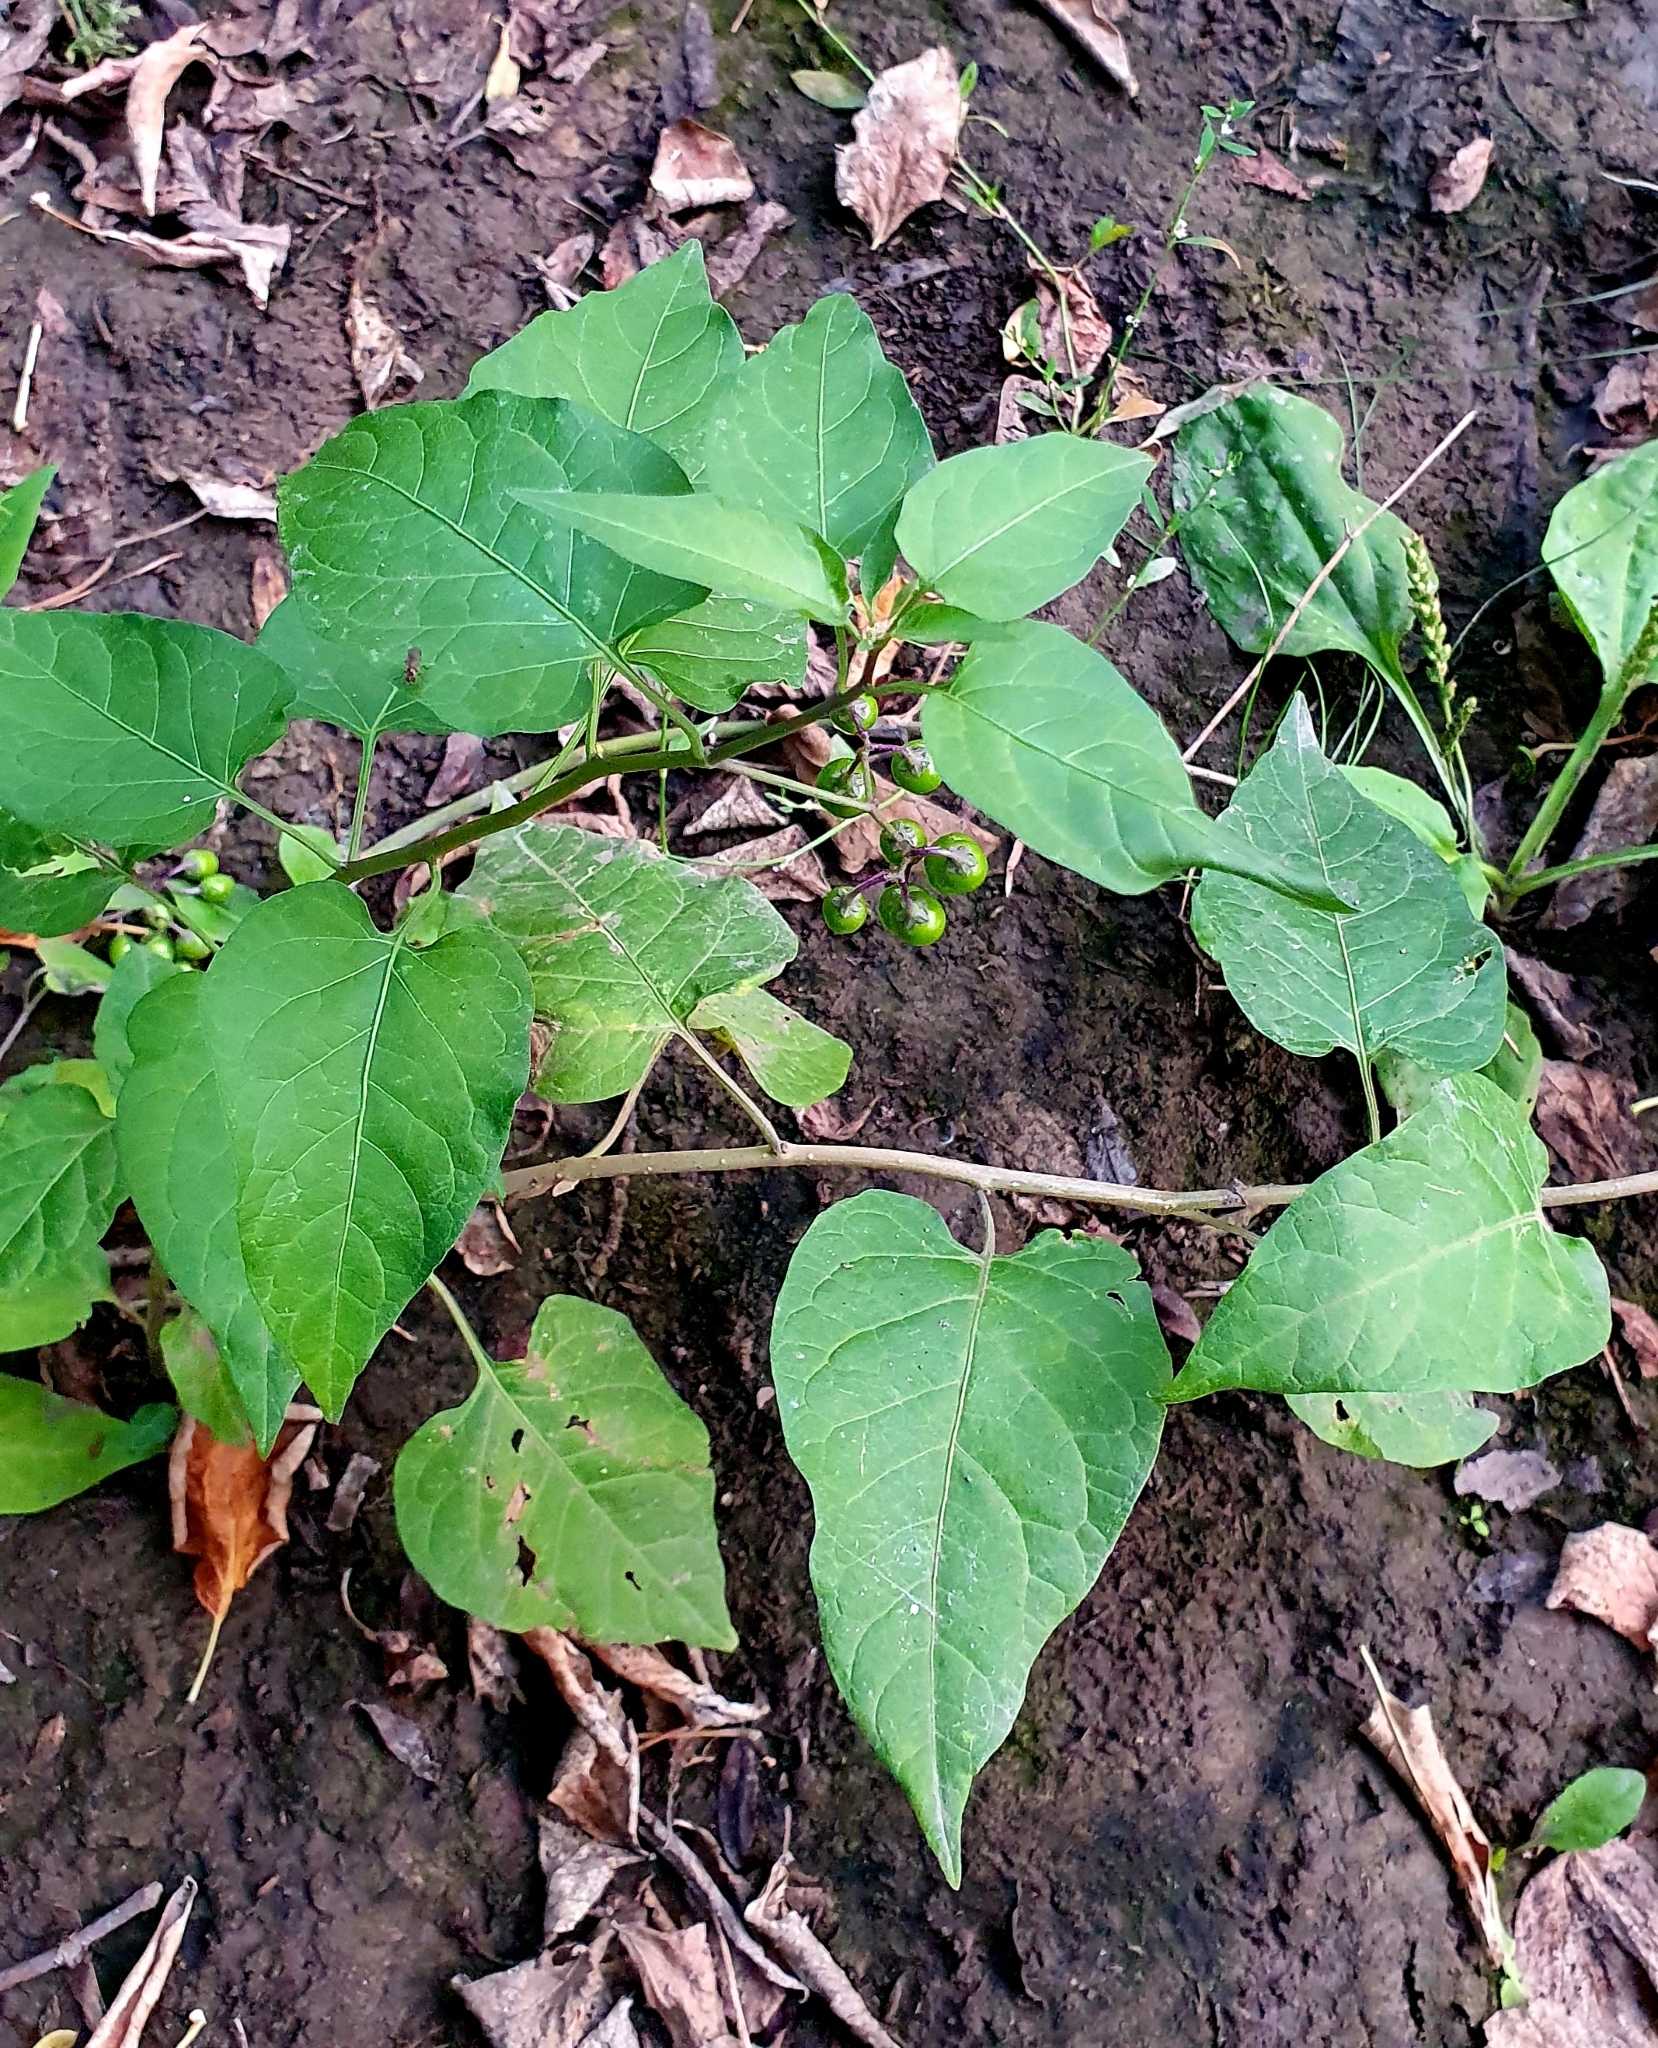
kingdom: Plantae
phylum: Tracheophyta
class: Magnoliopsida
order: Solanales
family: Solanaceae
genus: Solanum
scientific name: Solanum dulcamara
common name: Climbing nightshade
